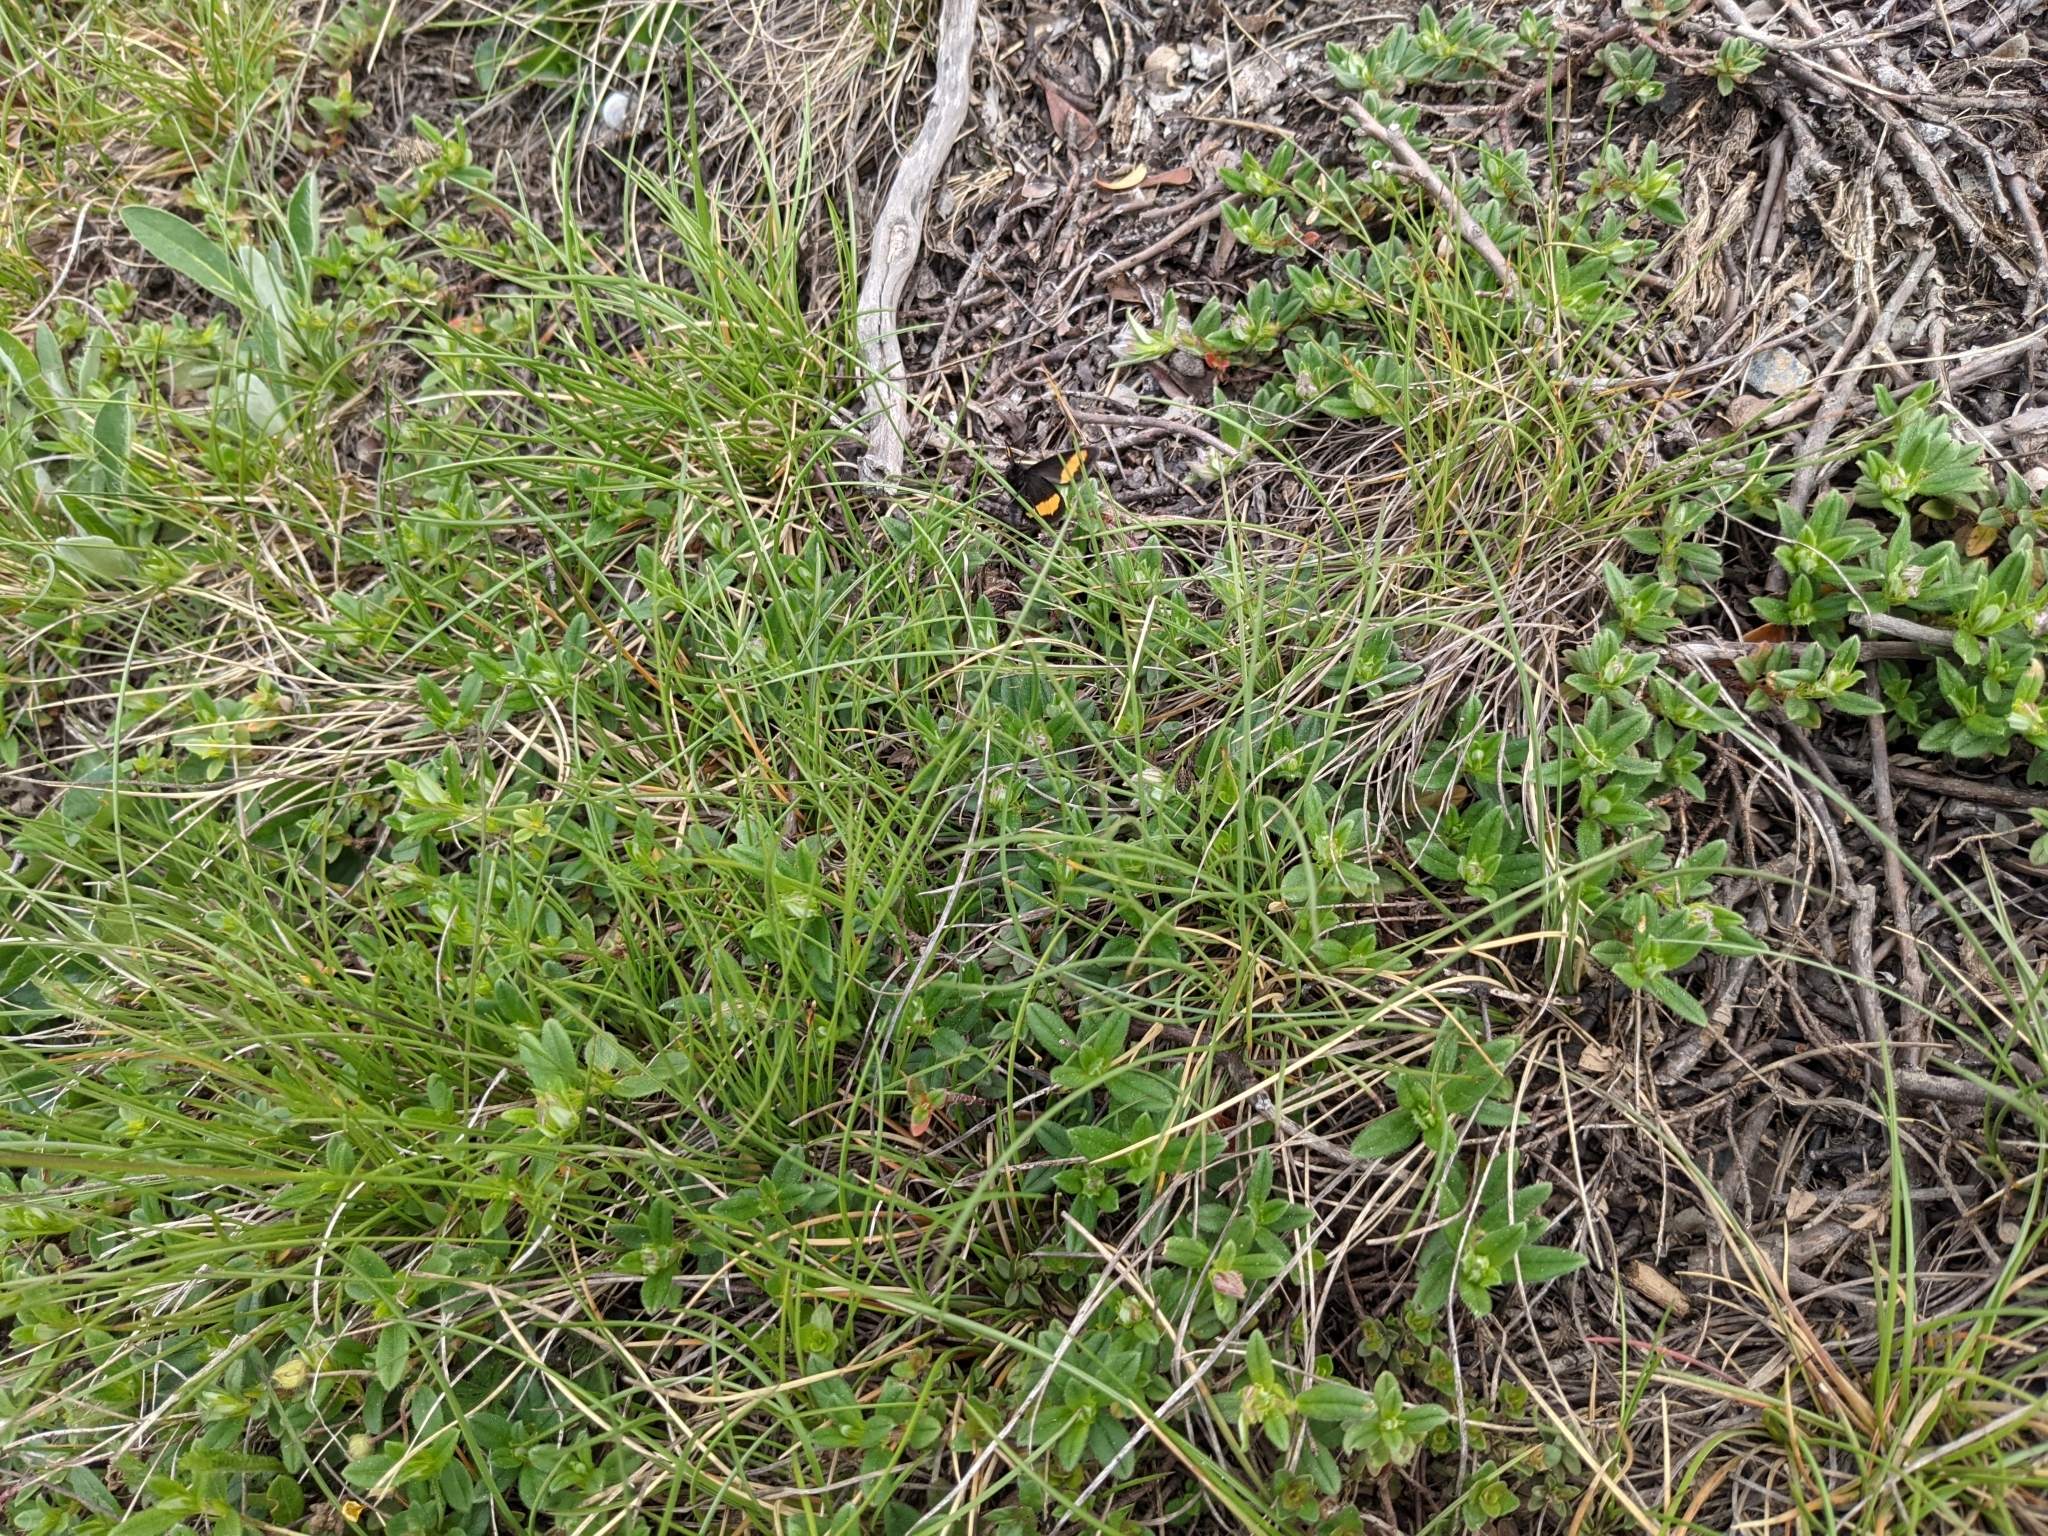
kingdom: Animalia
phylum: Arthropoda
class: Insecta
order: Lepidoptera
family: Geometridae
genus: Psodos
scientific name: Psodos quadrifaria
